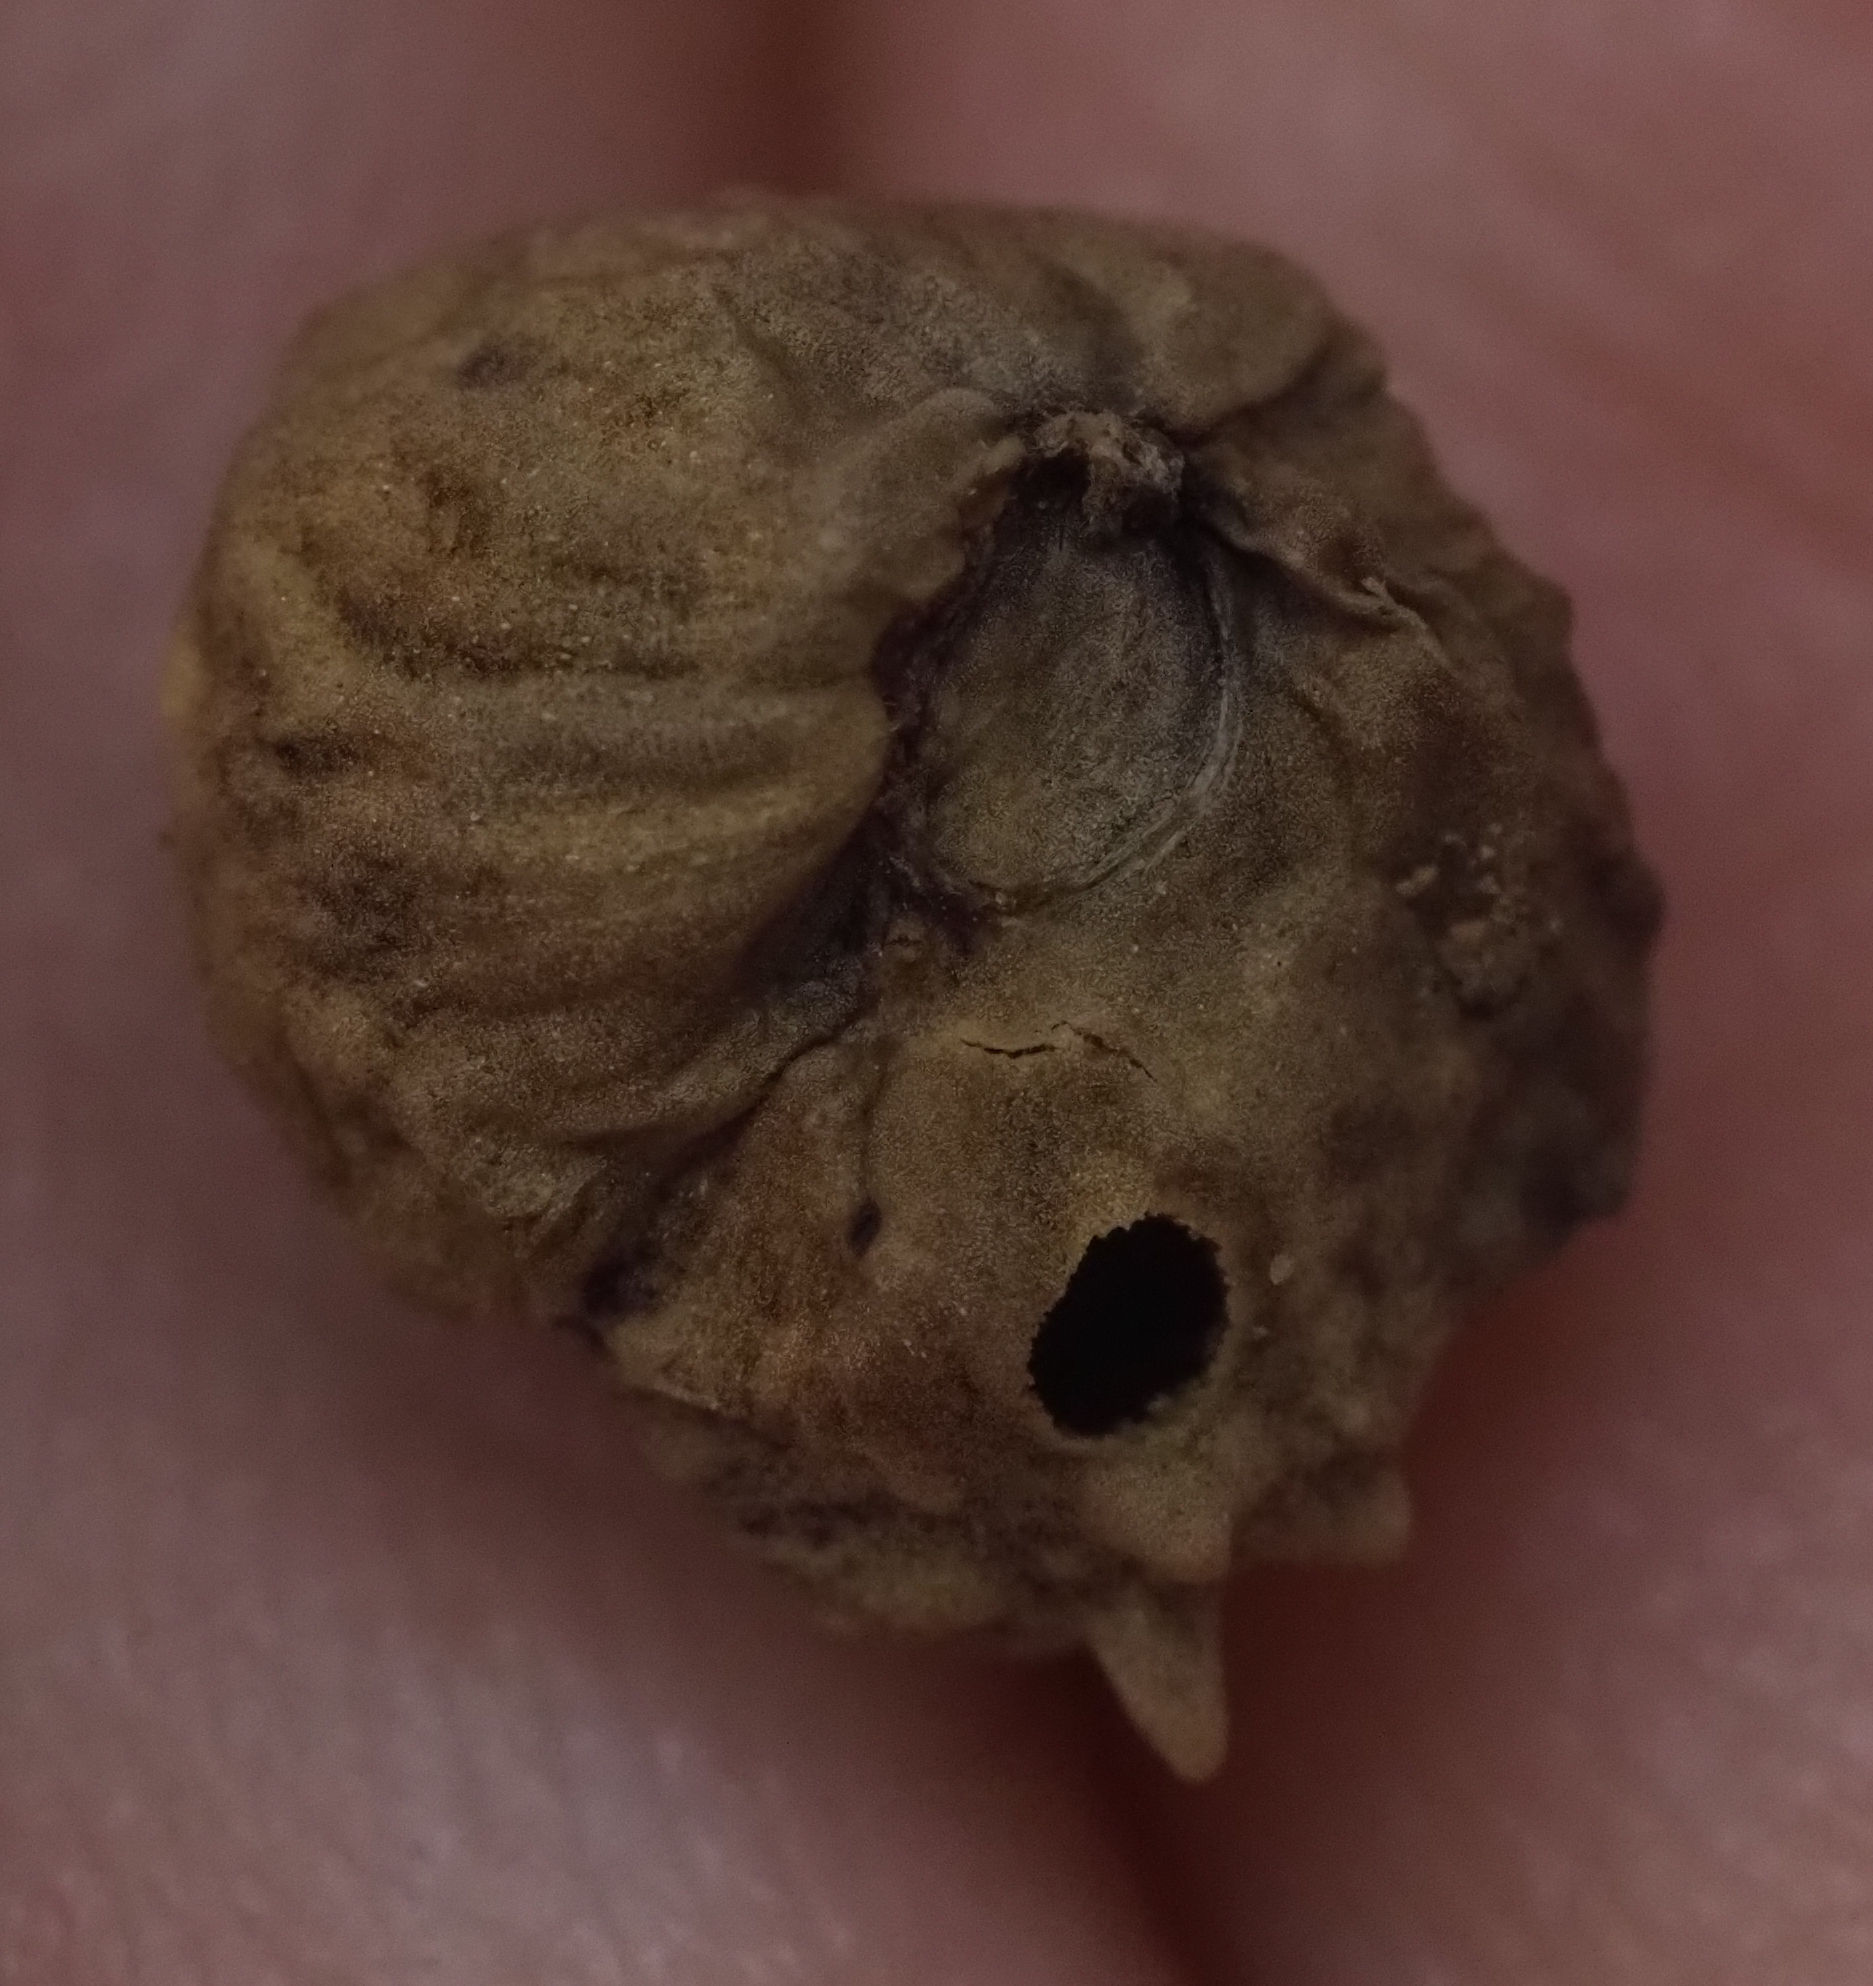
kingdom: Animalia
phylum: Arthropoda
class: Insecta
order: Hymenoptera
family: Cynipidae
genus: Andricus
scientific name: Andricus
